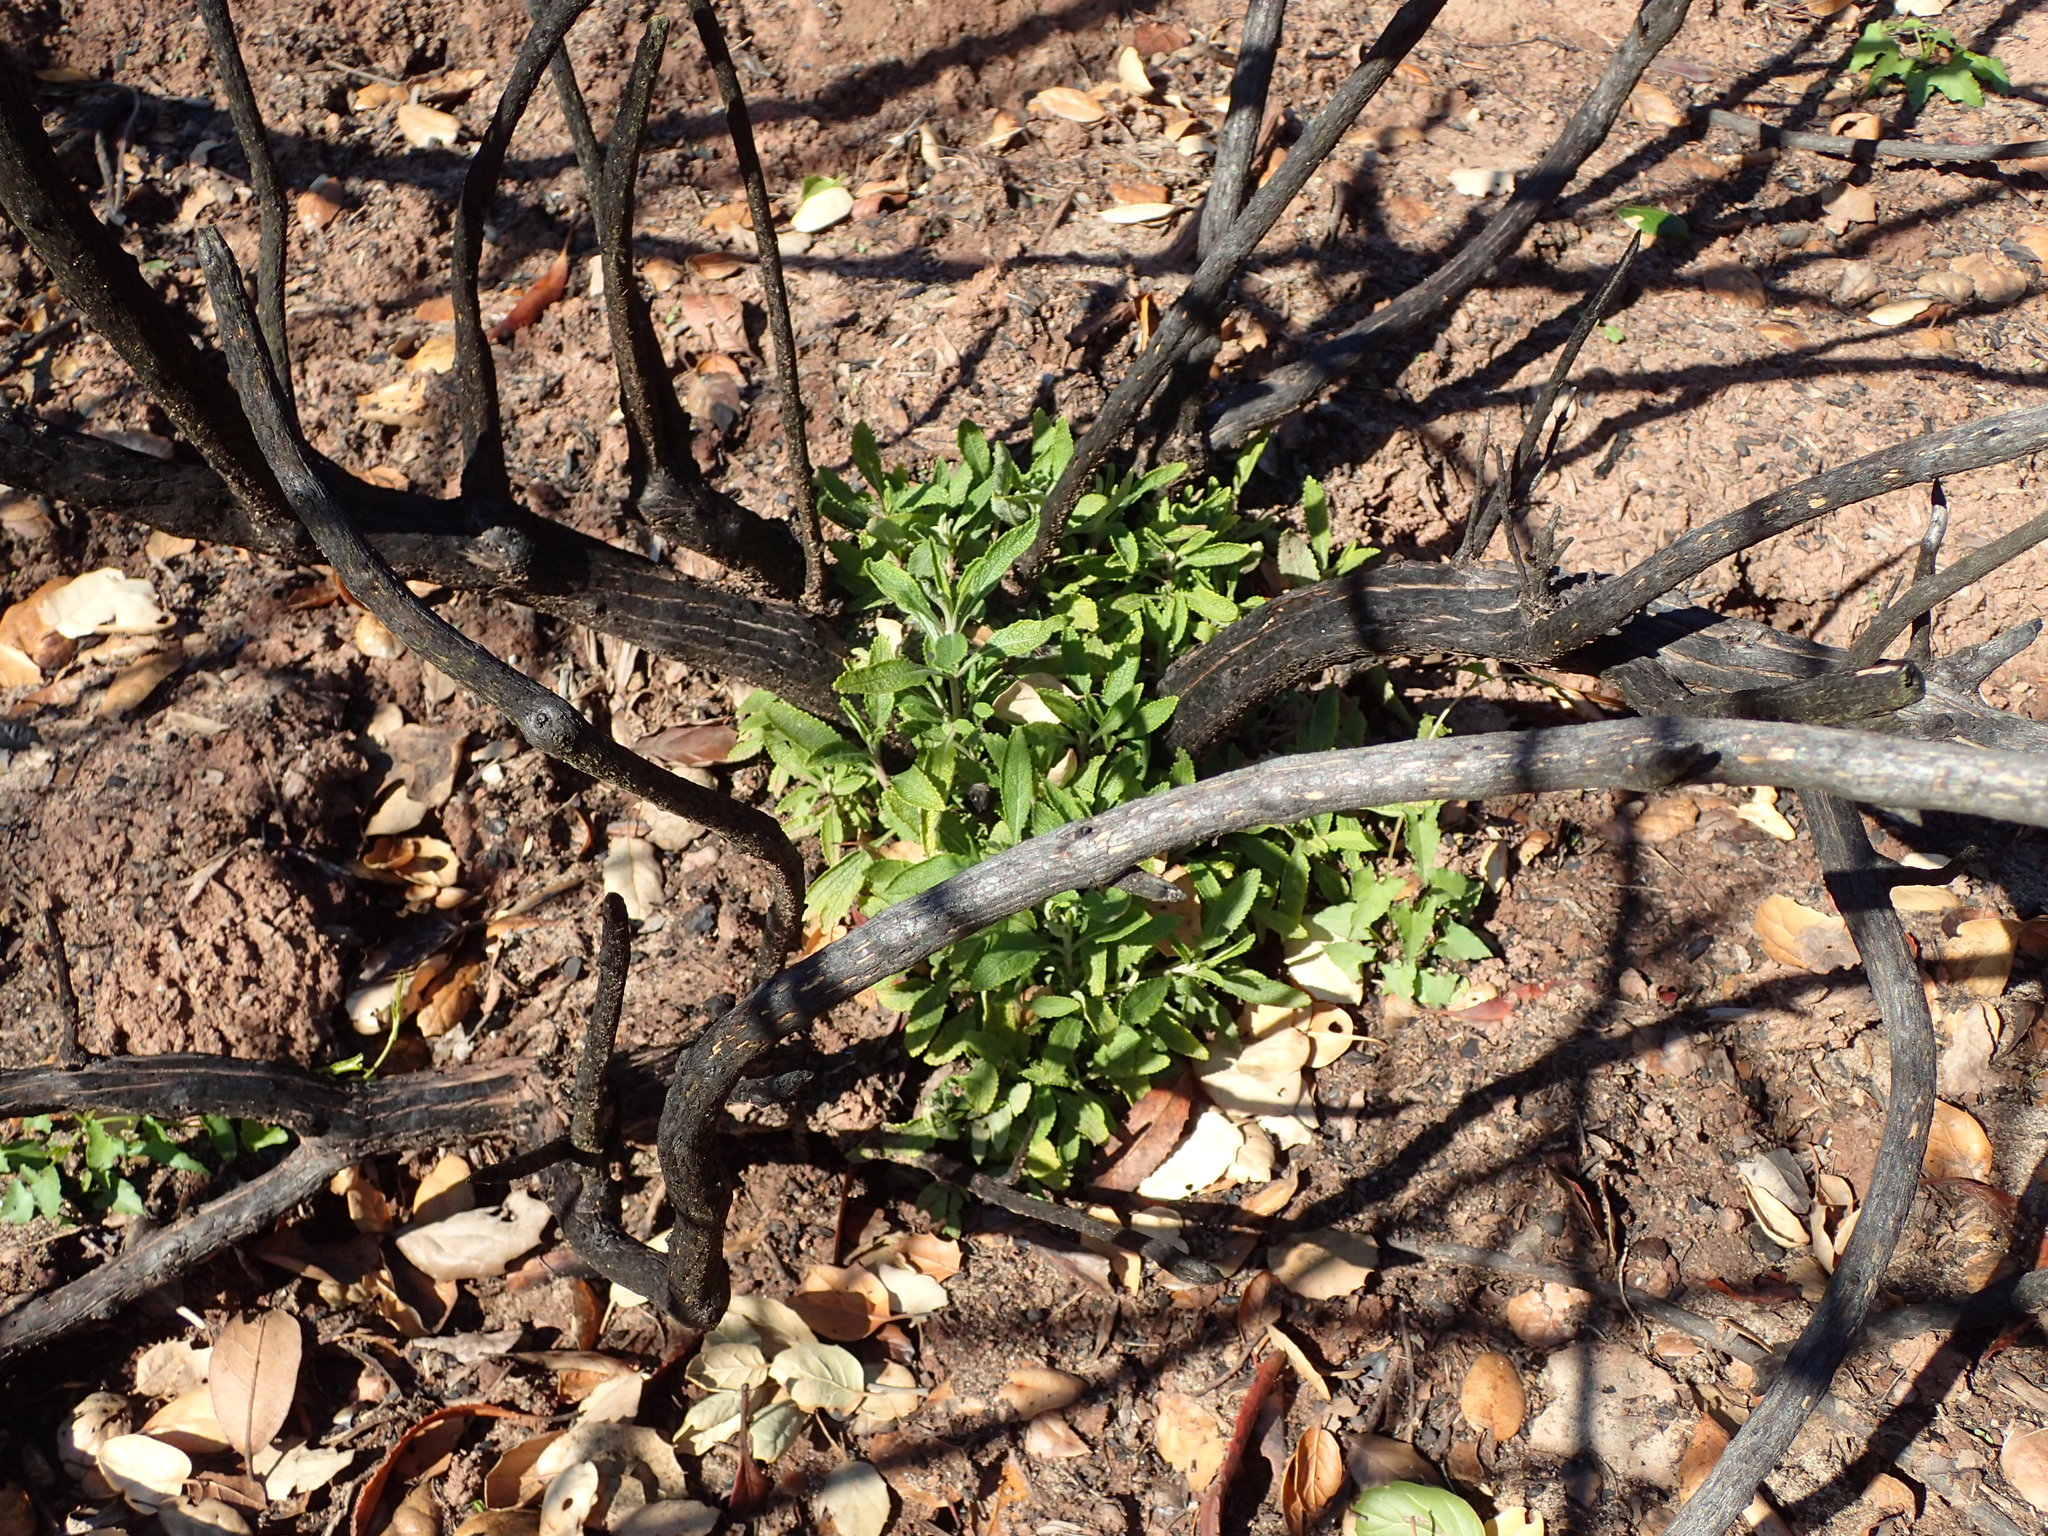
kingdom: Plantae
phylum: Tracheophyta
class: Magnoliopsida
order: Lamiales
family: Lamiaceae
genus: Salvia
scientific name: Salvia mellifera
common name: Black sage
